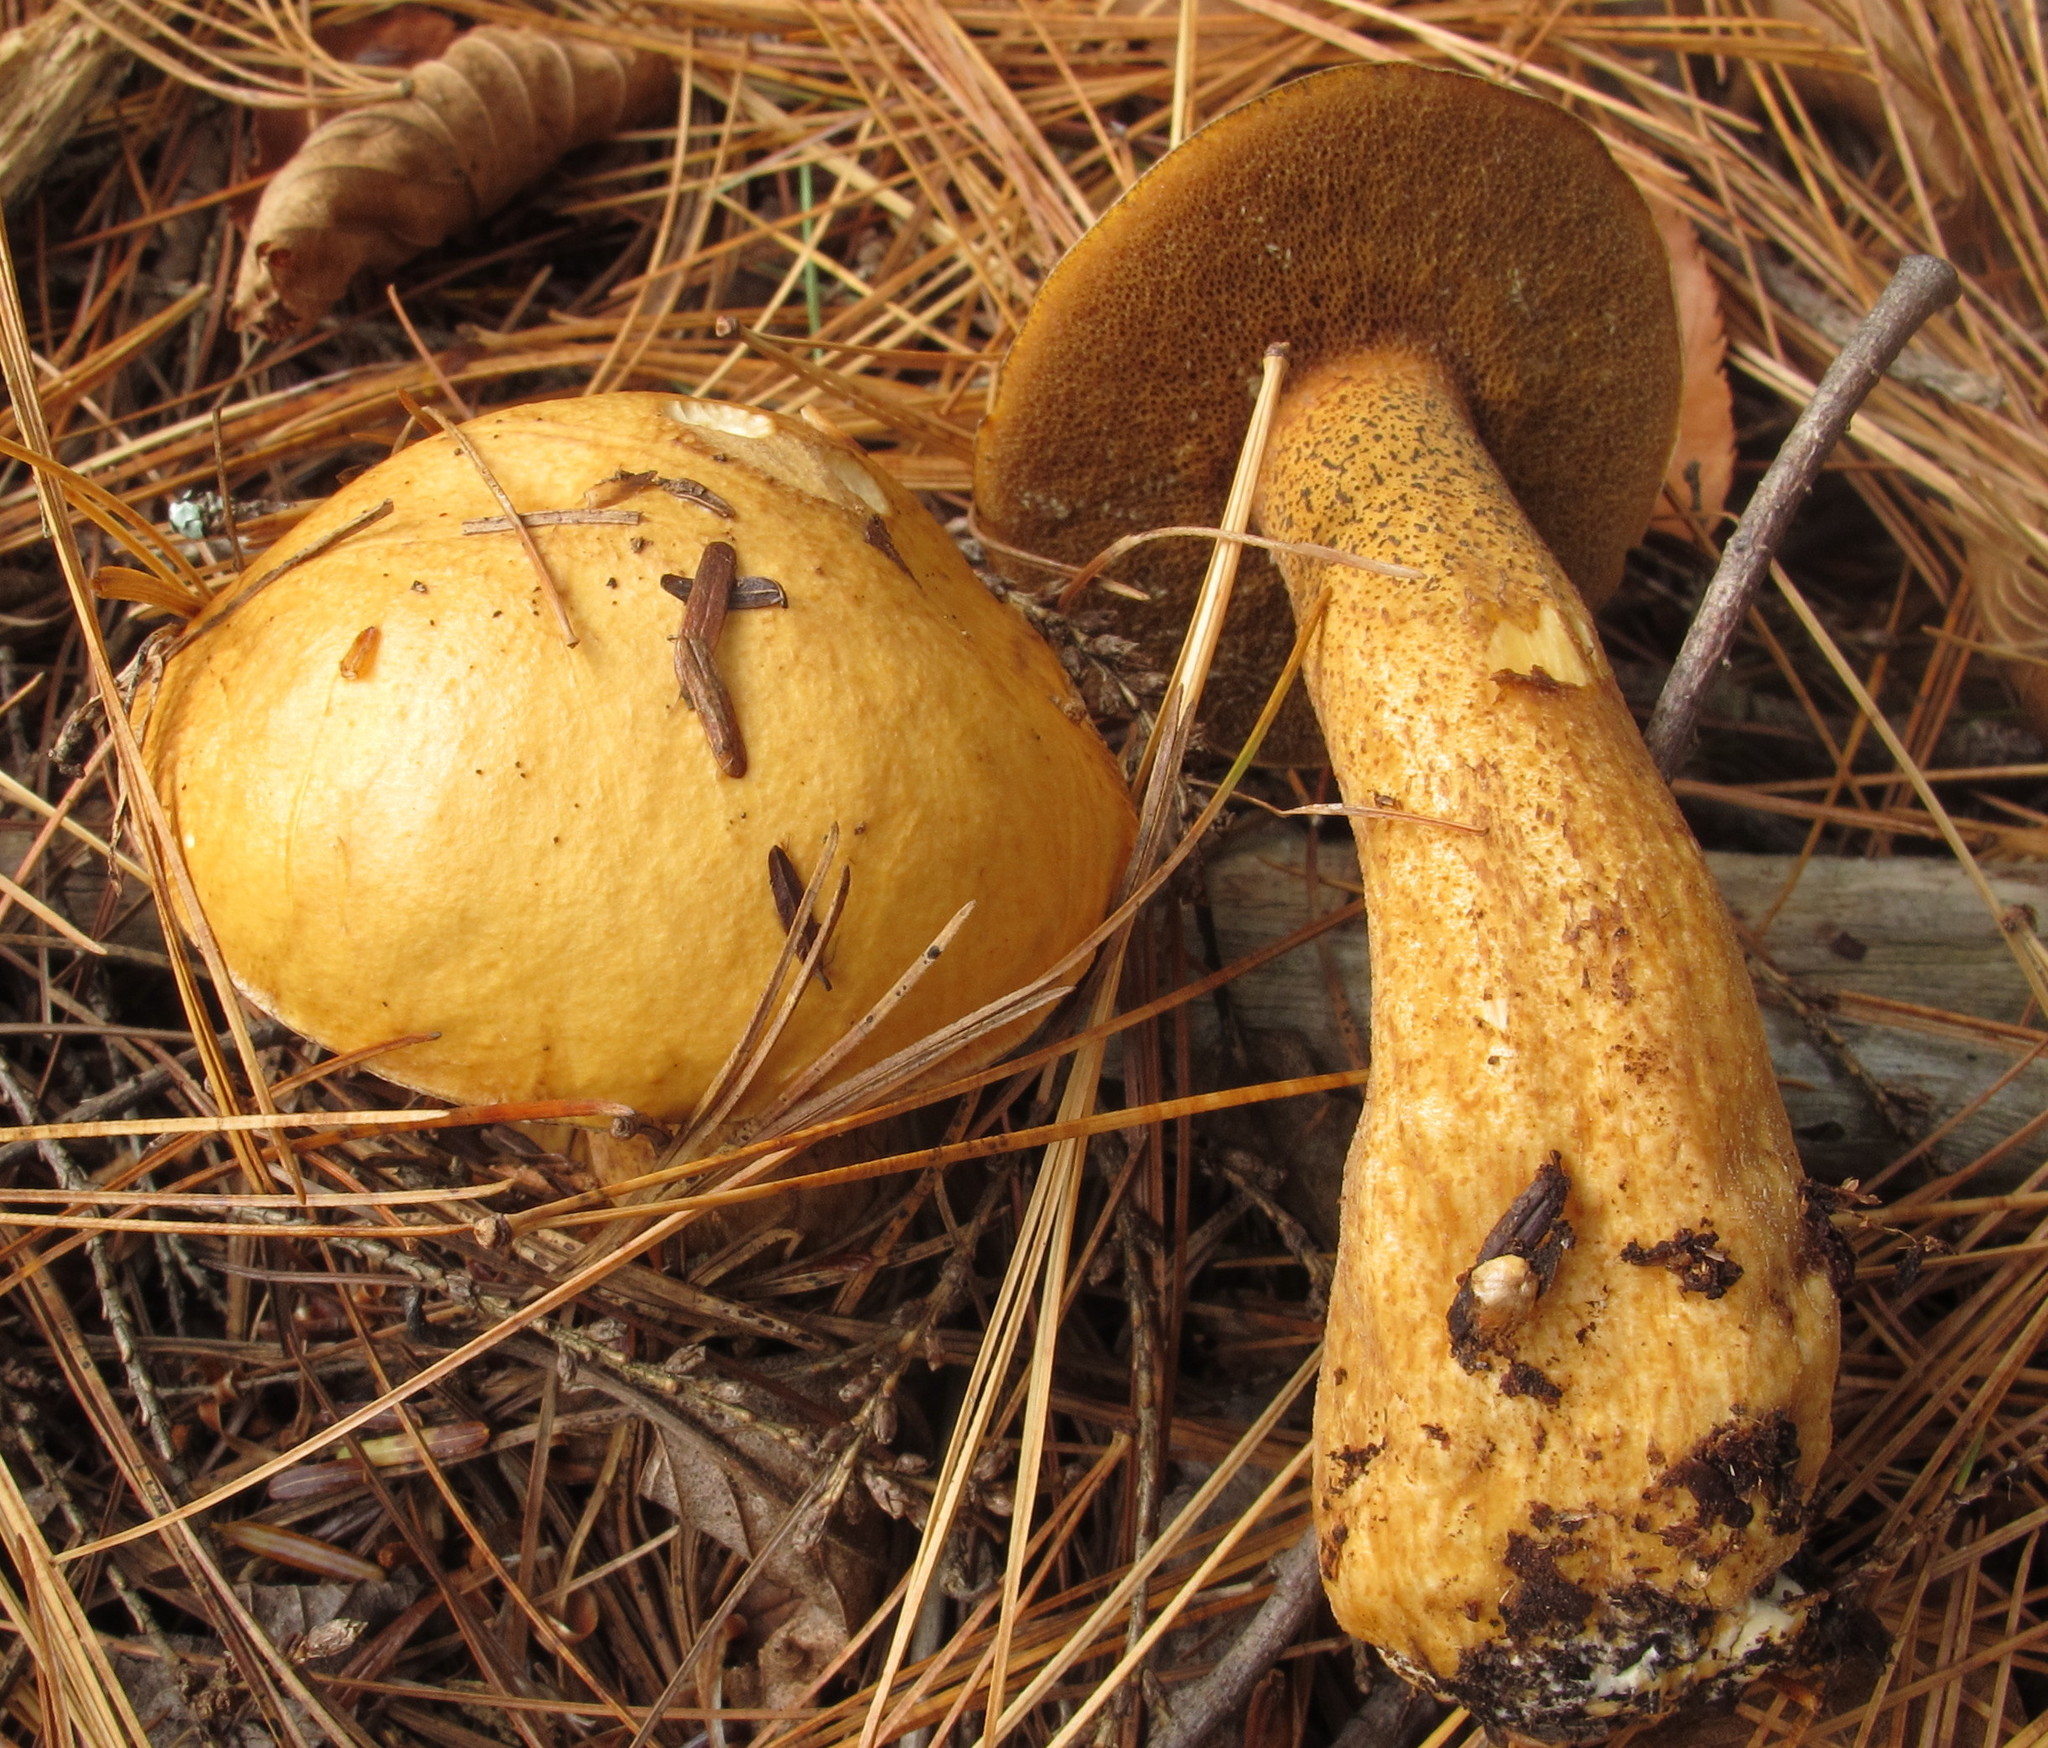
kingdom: Fungi
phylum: Basidiomycota
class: Agaricomycetes
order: Boletales
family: Suillaceae
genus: Suillus
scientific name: Suillus punctipes
